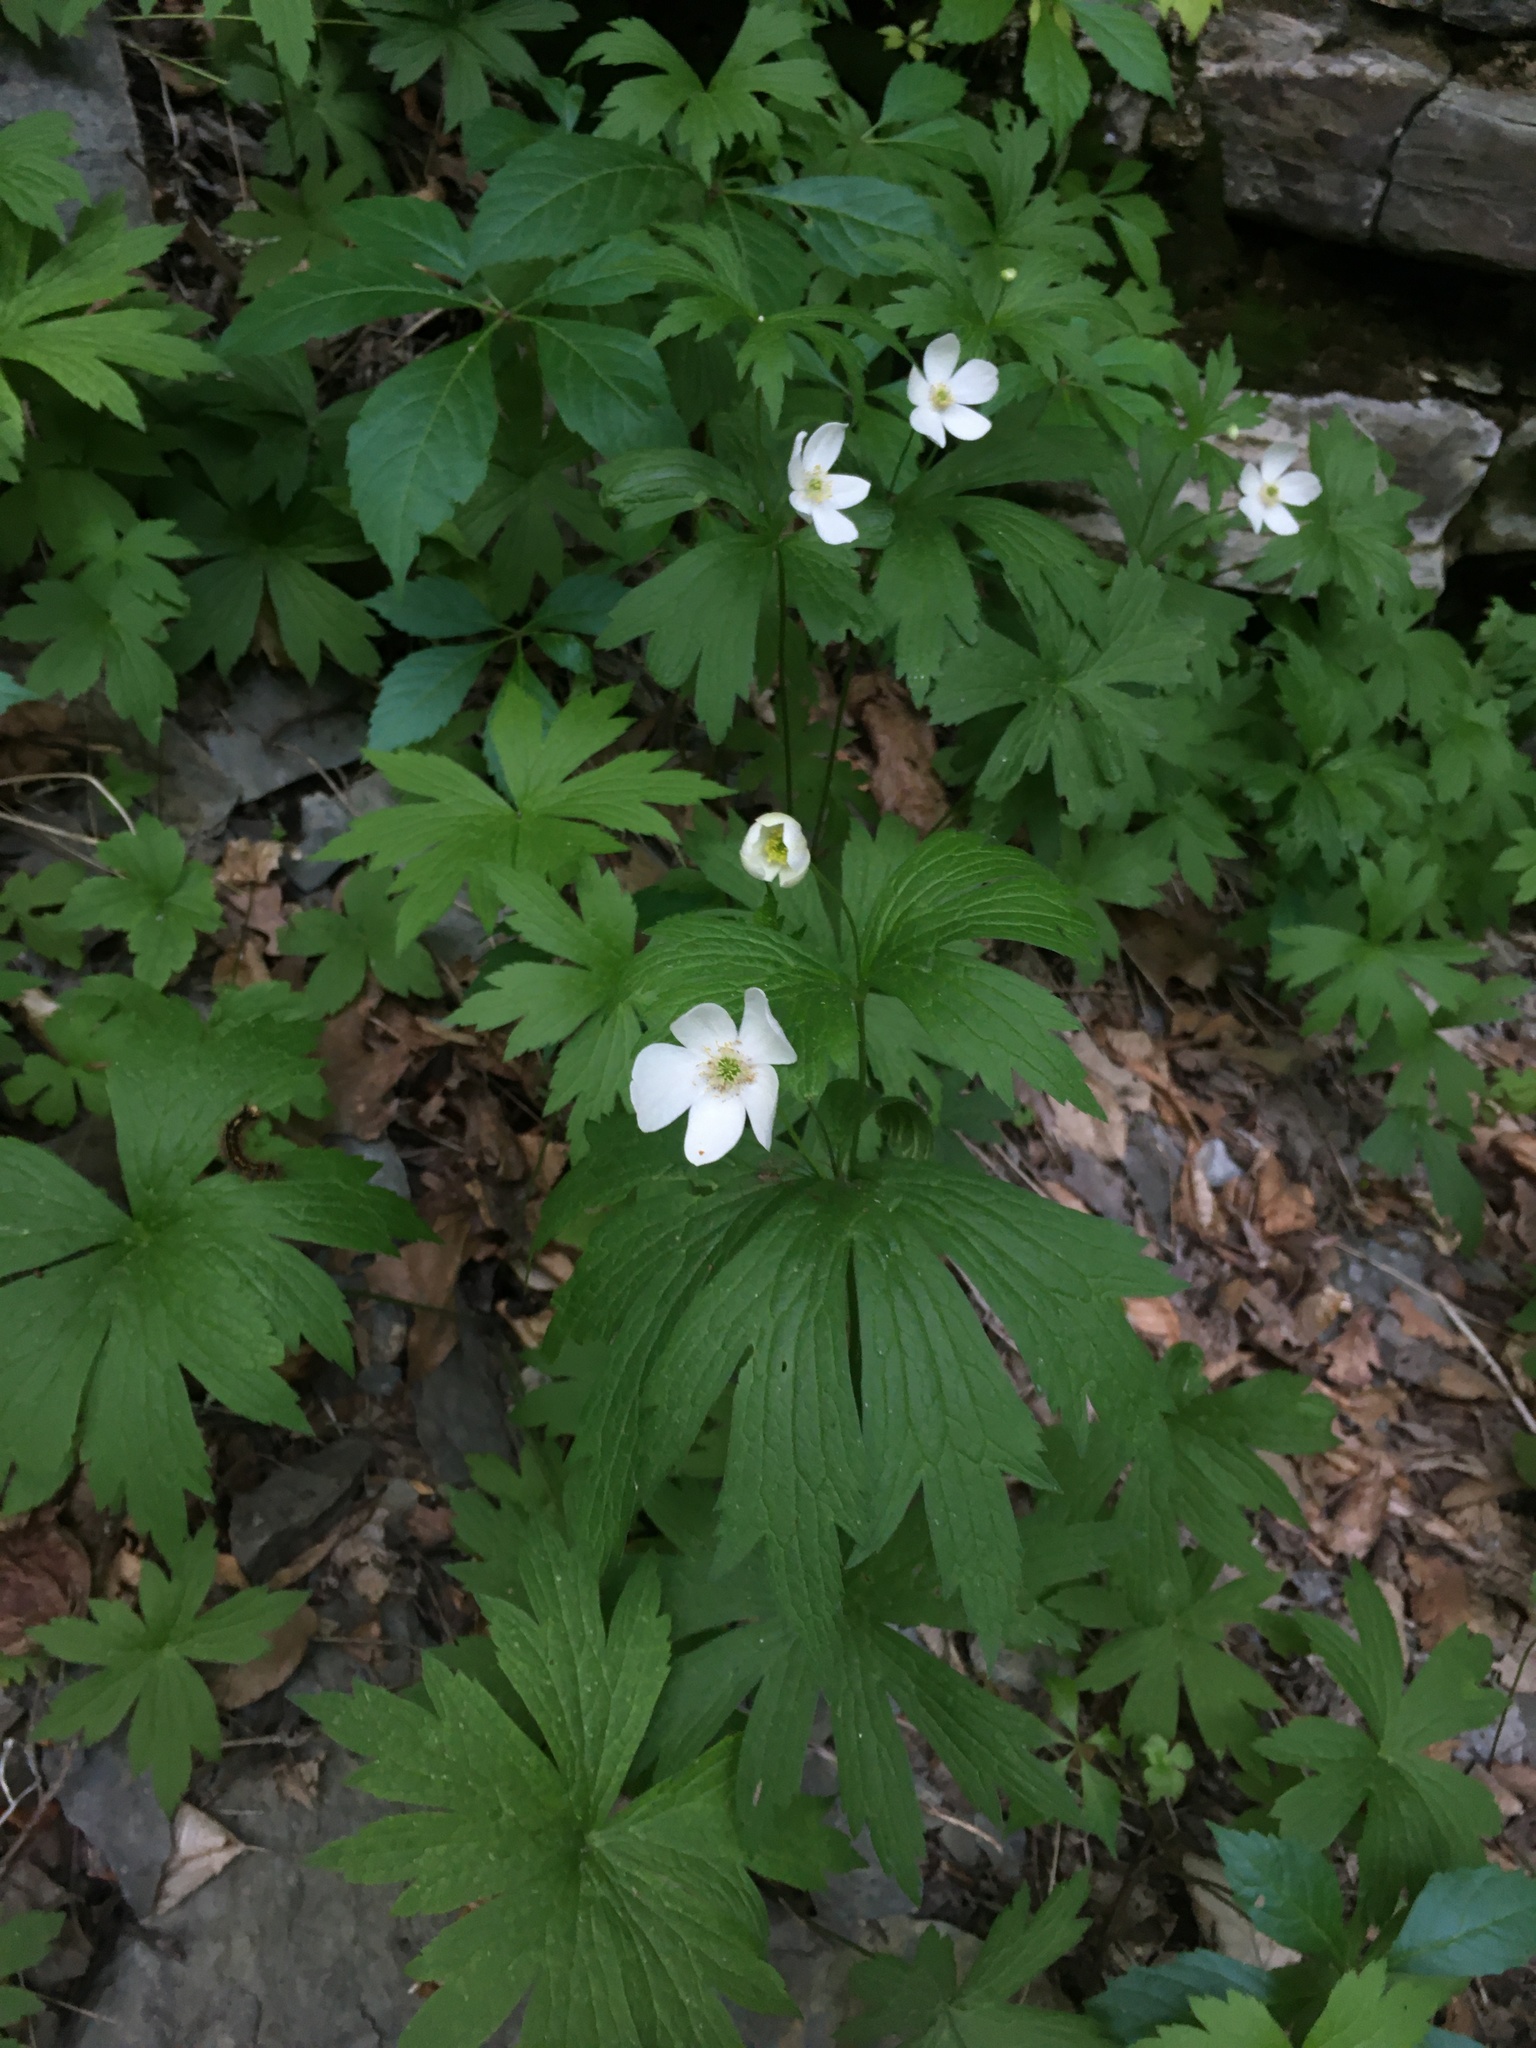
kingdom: Plantae
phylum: Tracheophyta
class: Magnoliopsida
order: Ranunculales
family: Ranunculaceae
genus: Anemonastrum
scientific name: Anemonastrum canadense
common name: Canada anemone
